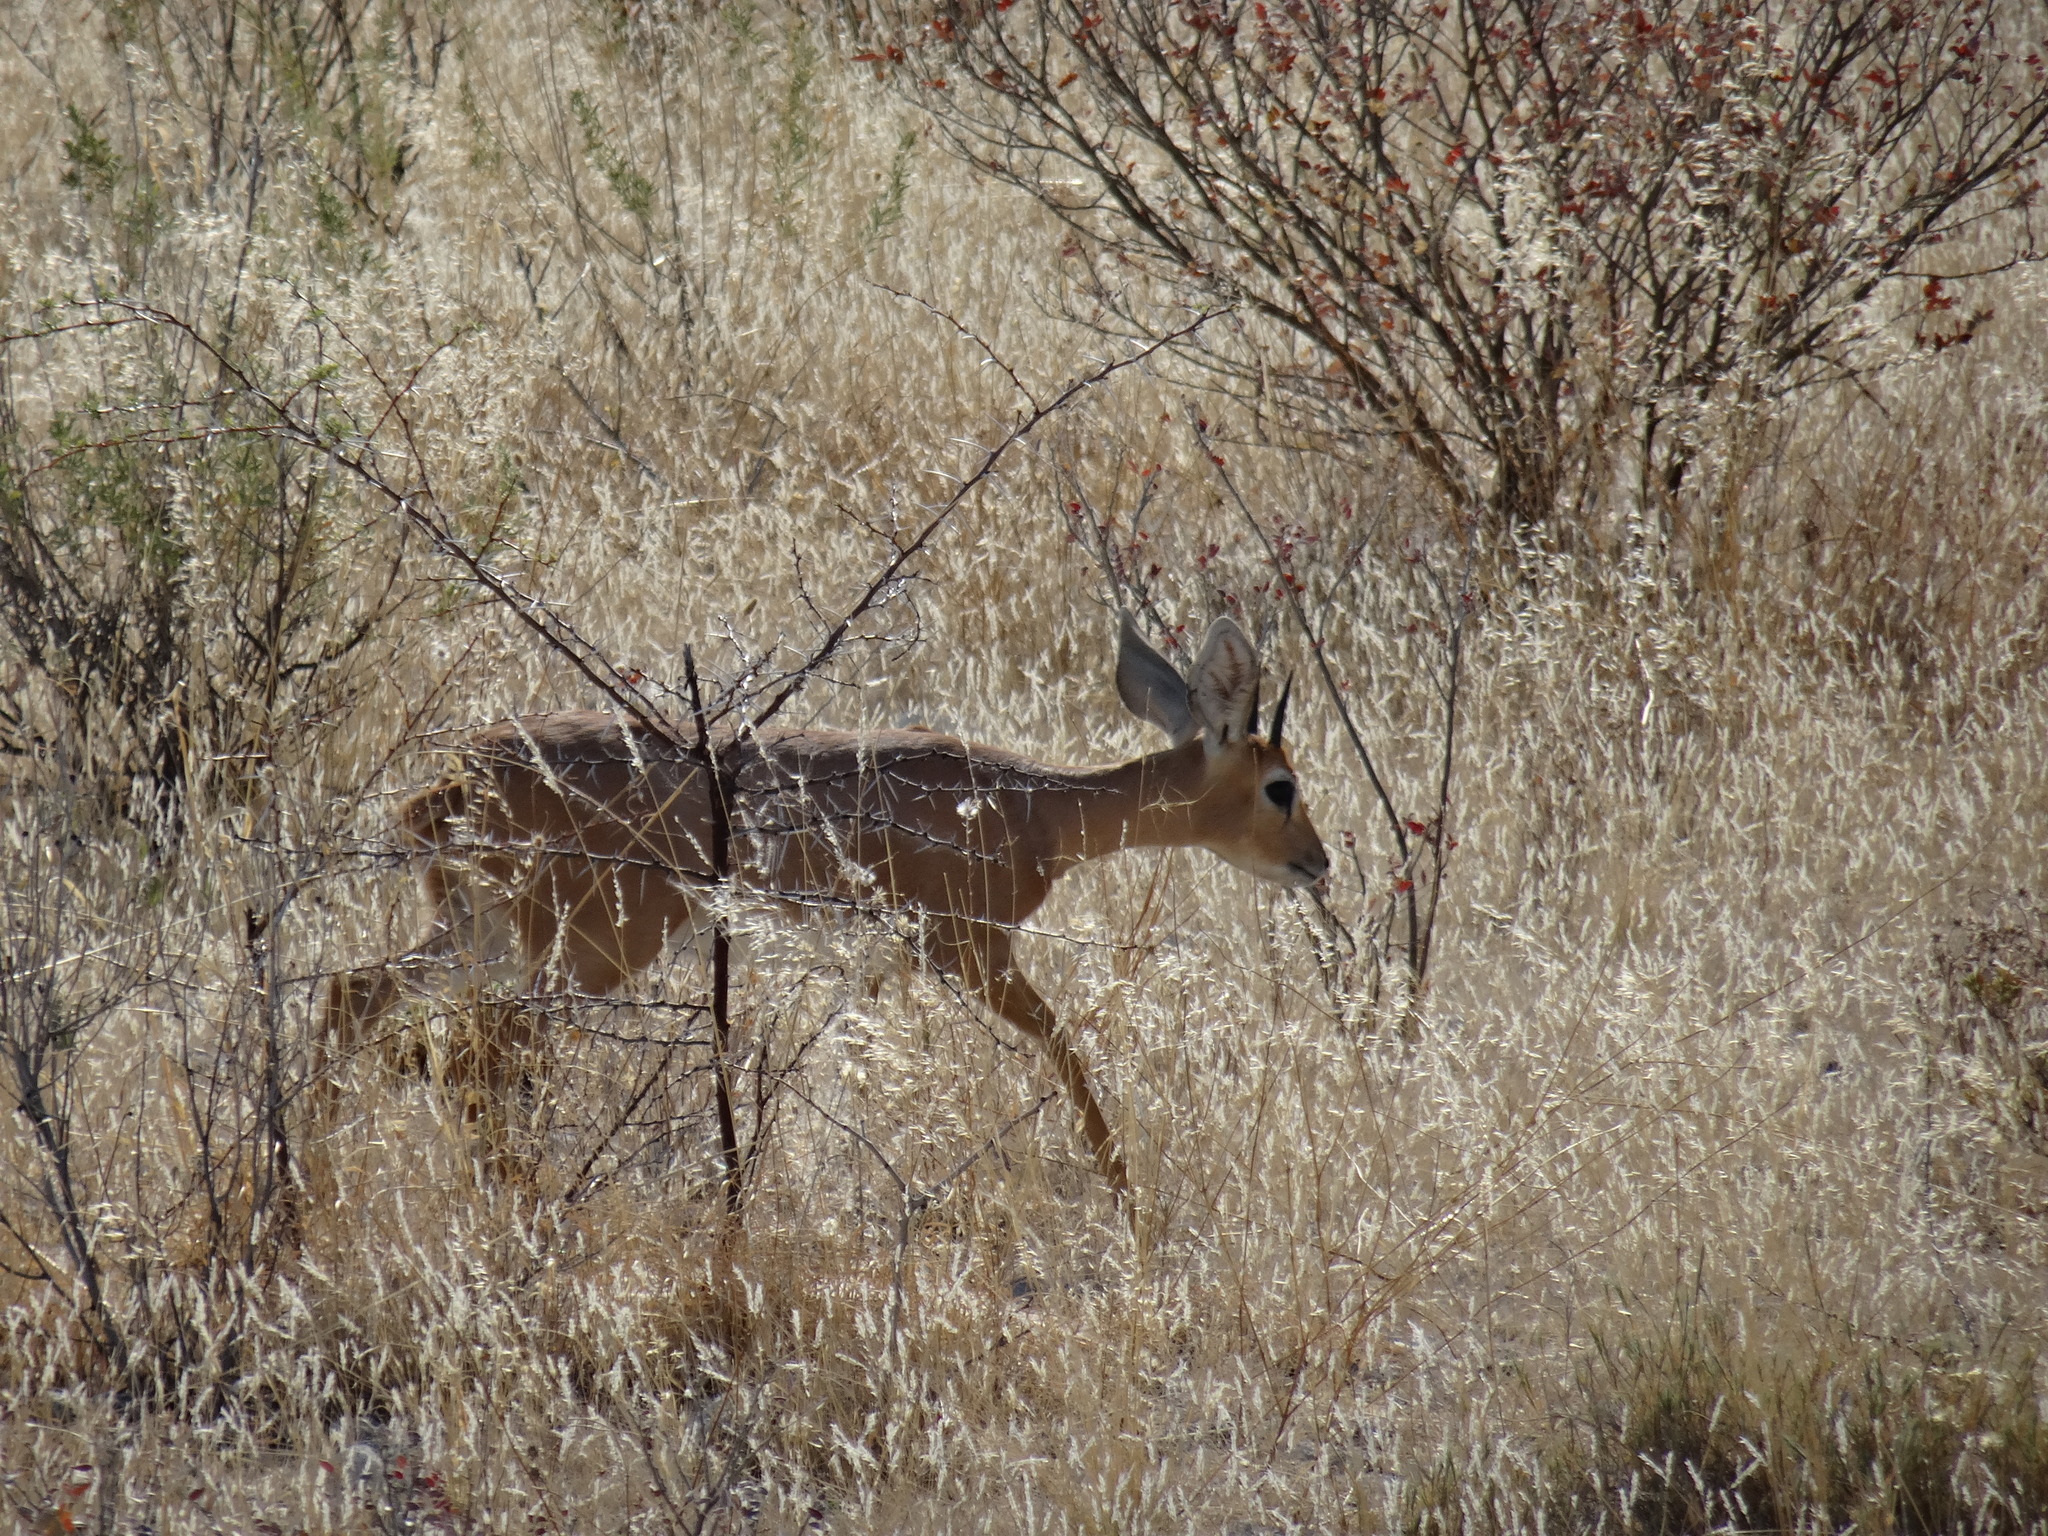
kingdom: Animalia
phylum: Chordata
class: Mammalia
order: Artiodactyla
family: Bovidae
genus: Raphicerus
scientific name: Raphicerus campestris
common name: Steenbok
